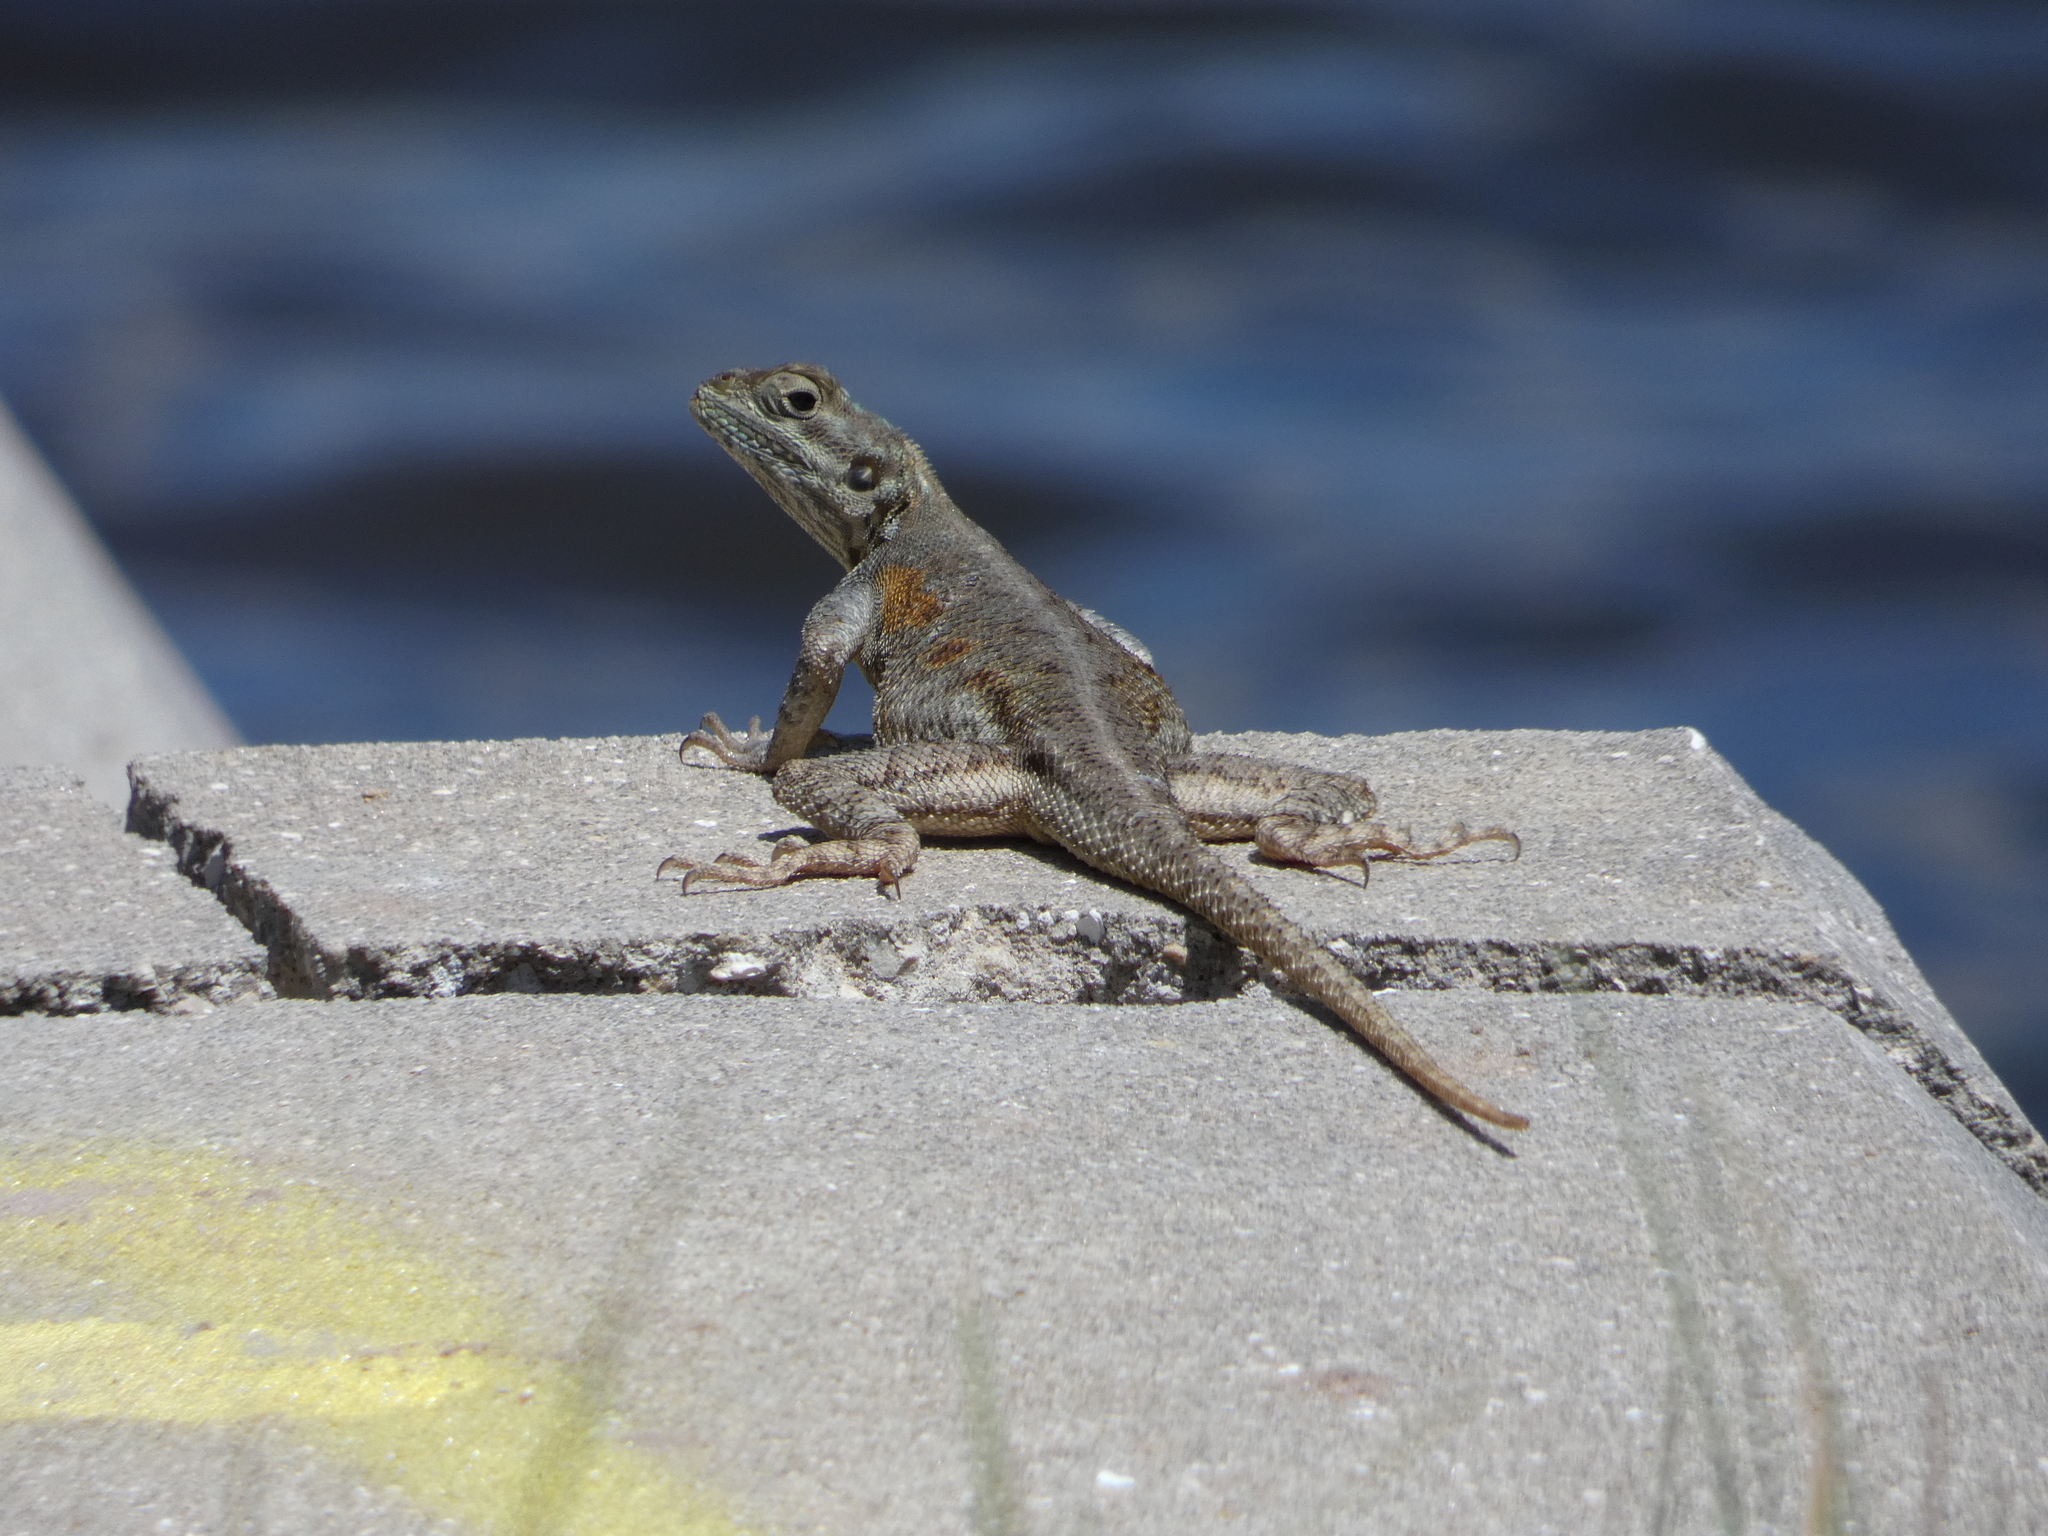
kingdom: Animalia
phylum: Chordata
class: Squamata
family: Agamidae
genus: Agama
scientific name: Agama picticauda
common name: Red-headed agama
